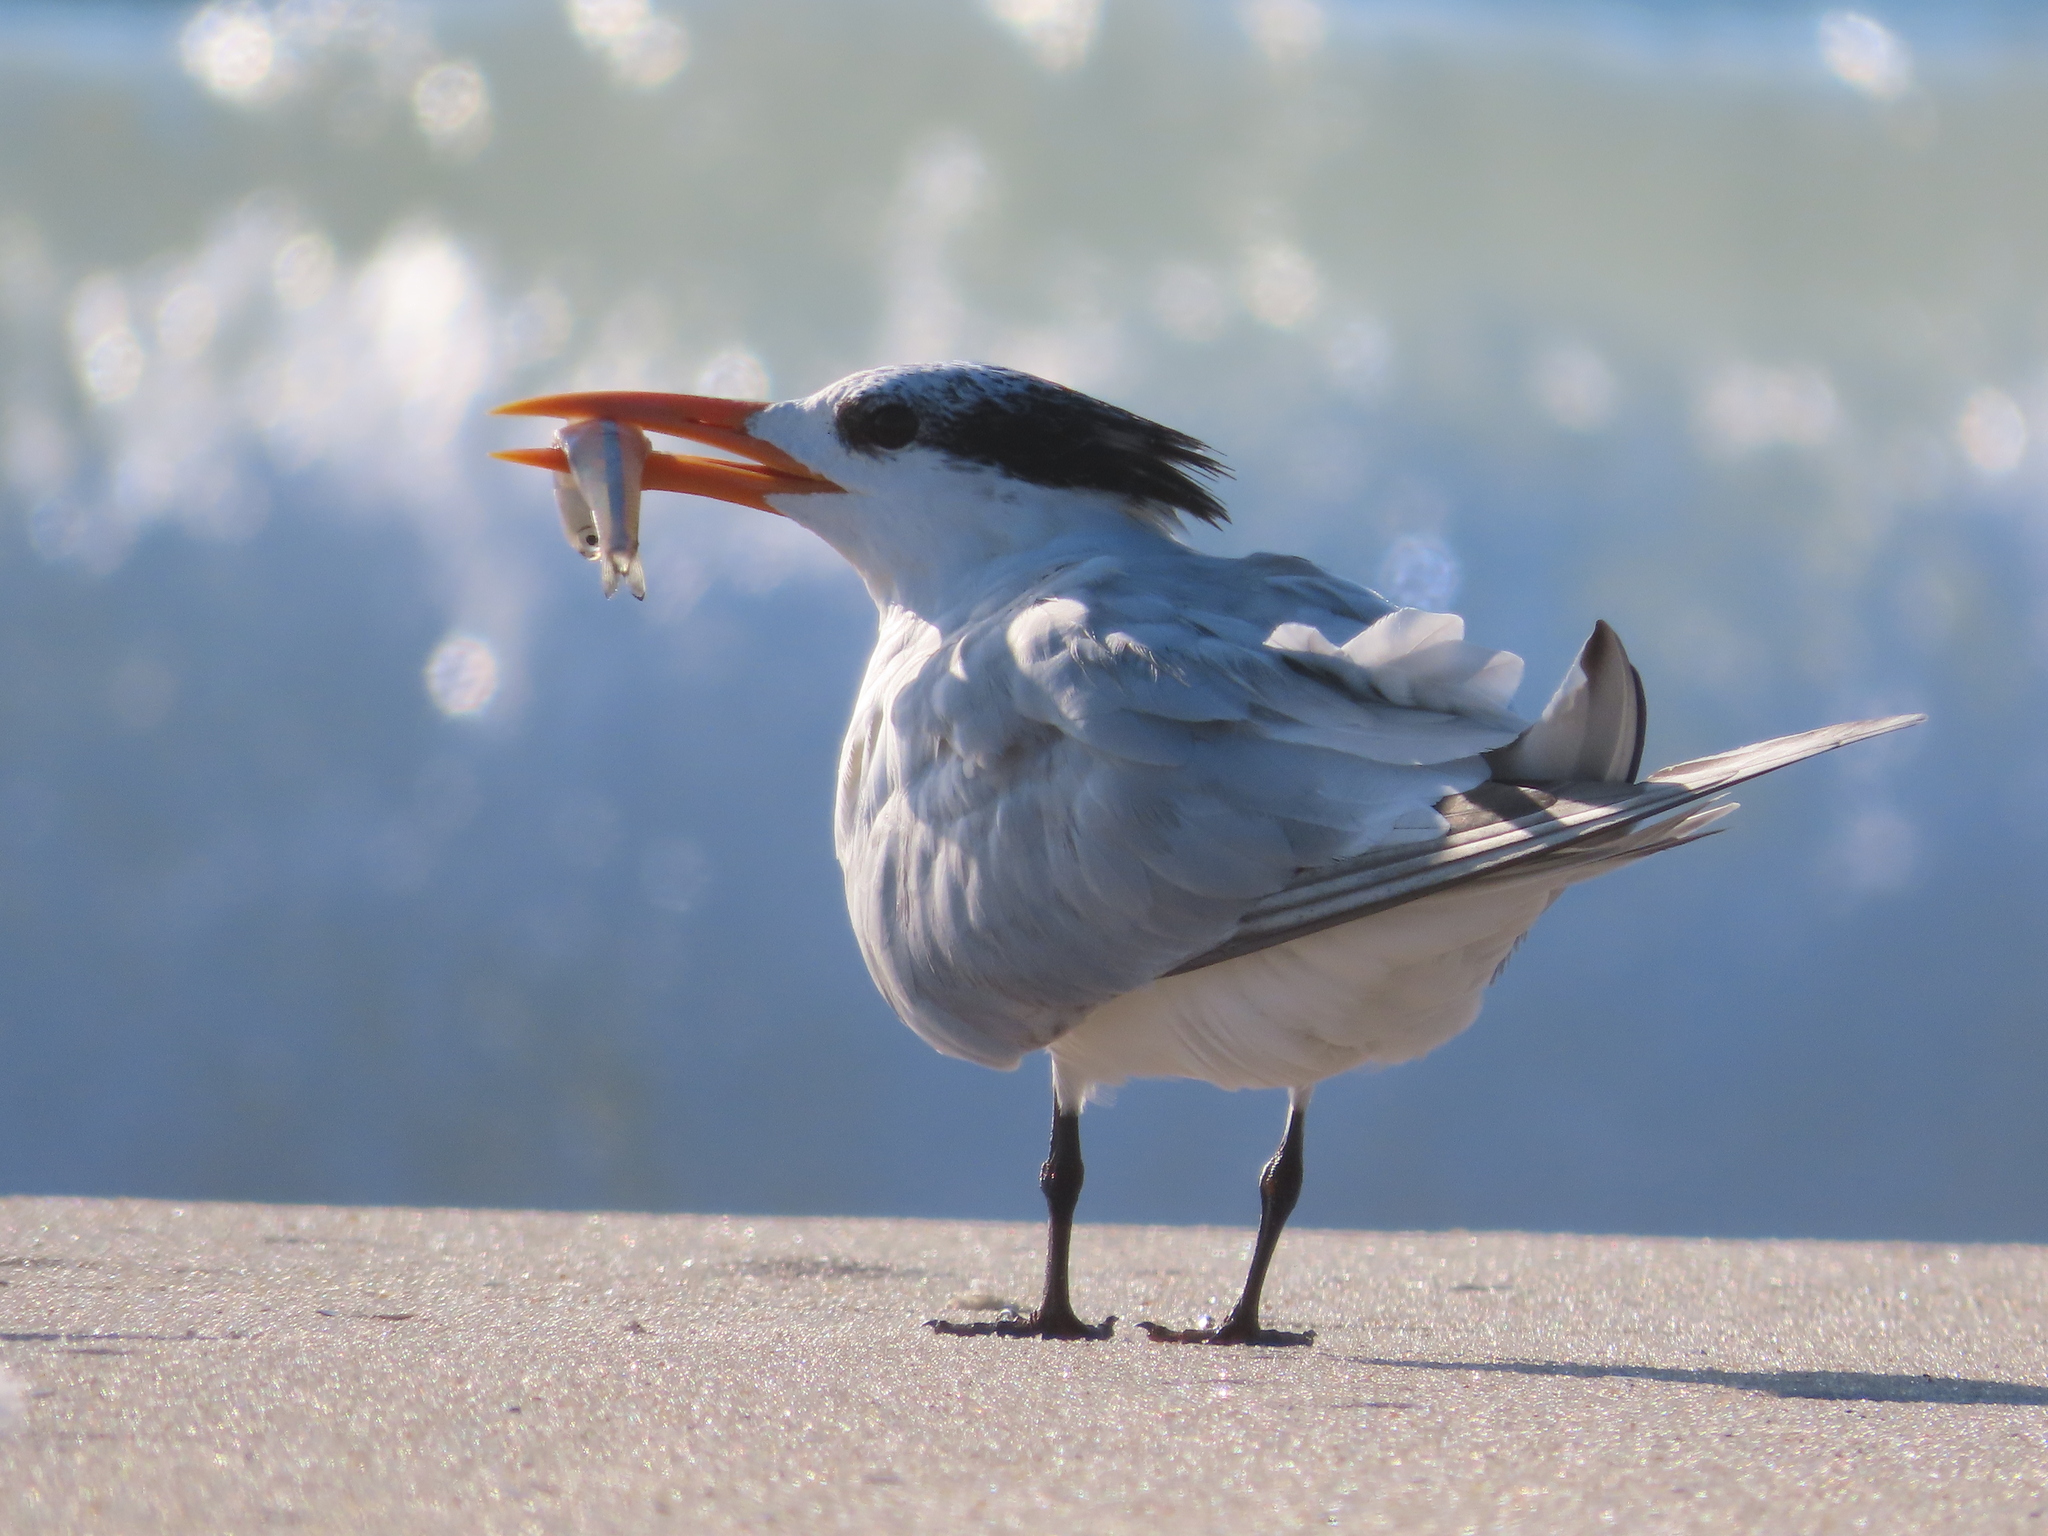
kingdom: Animalia
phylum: Chordata
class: Aves
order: Charadriiformes
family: Laridae
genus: Thalasseus
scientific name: Thalasseus maximus
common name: Royal tern
